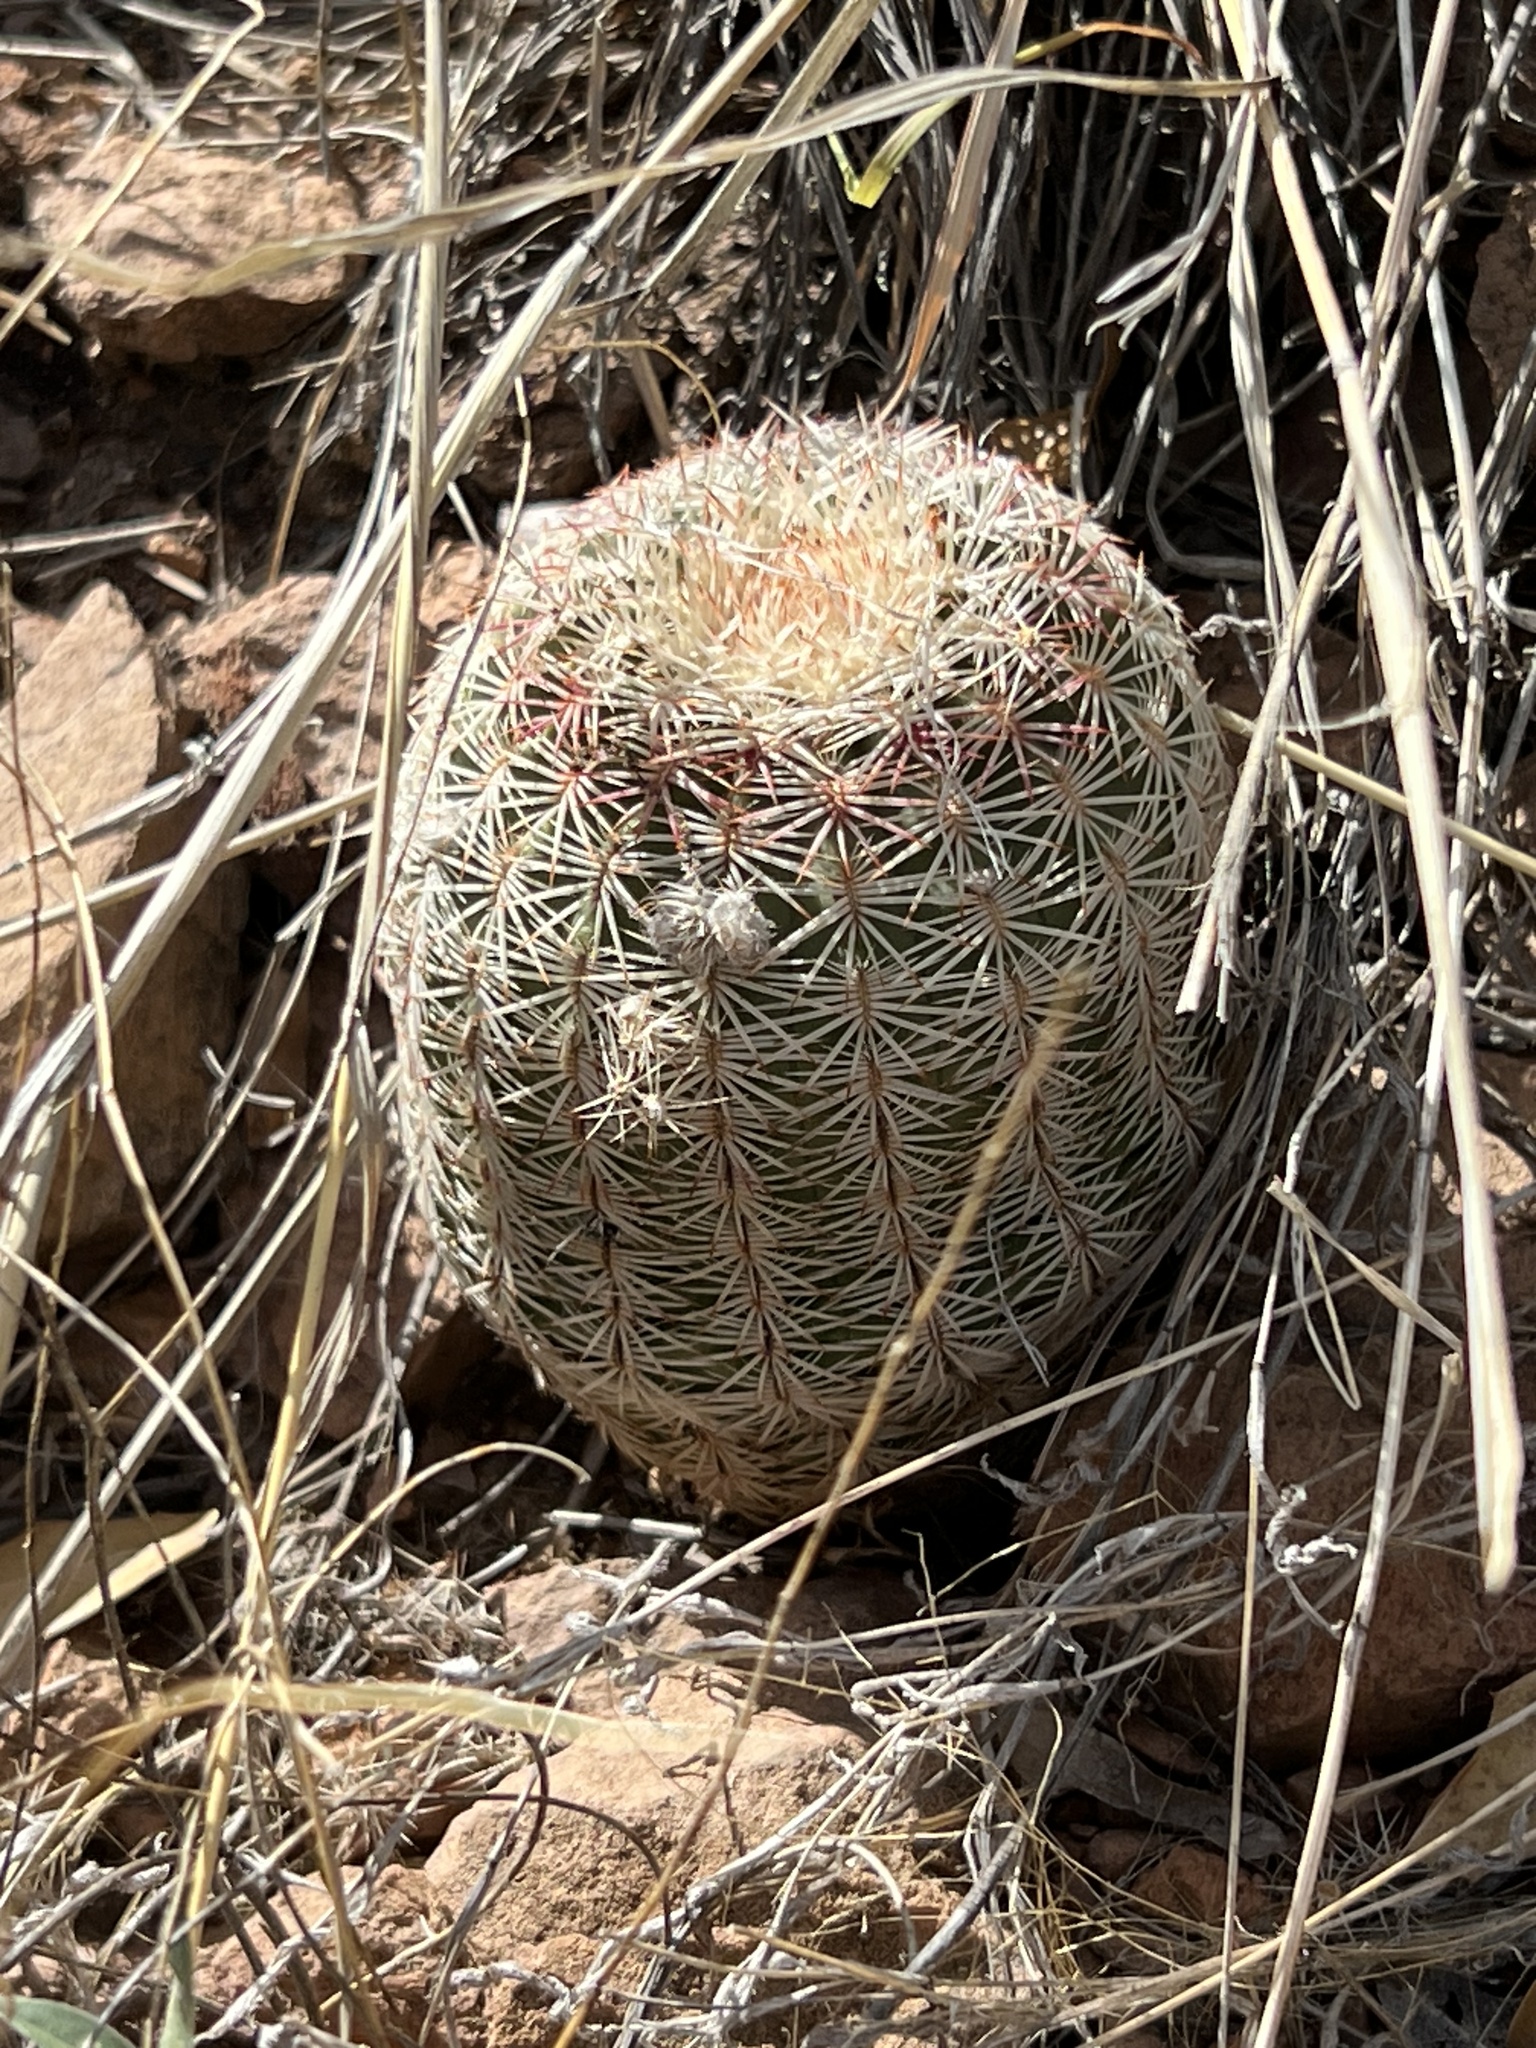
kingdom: Plantae
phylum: Tracheophyta
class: Magnoliopsida
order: Caryophyllales
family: Cactaceae
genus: Echinocereus
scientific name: Echinocereus rigidissimus
